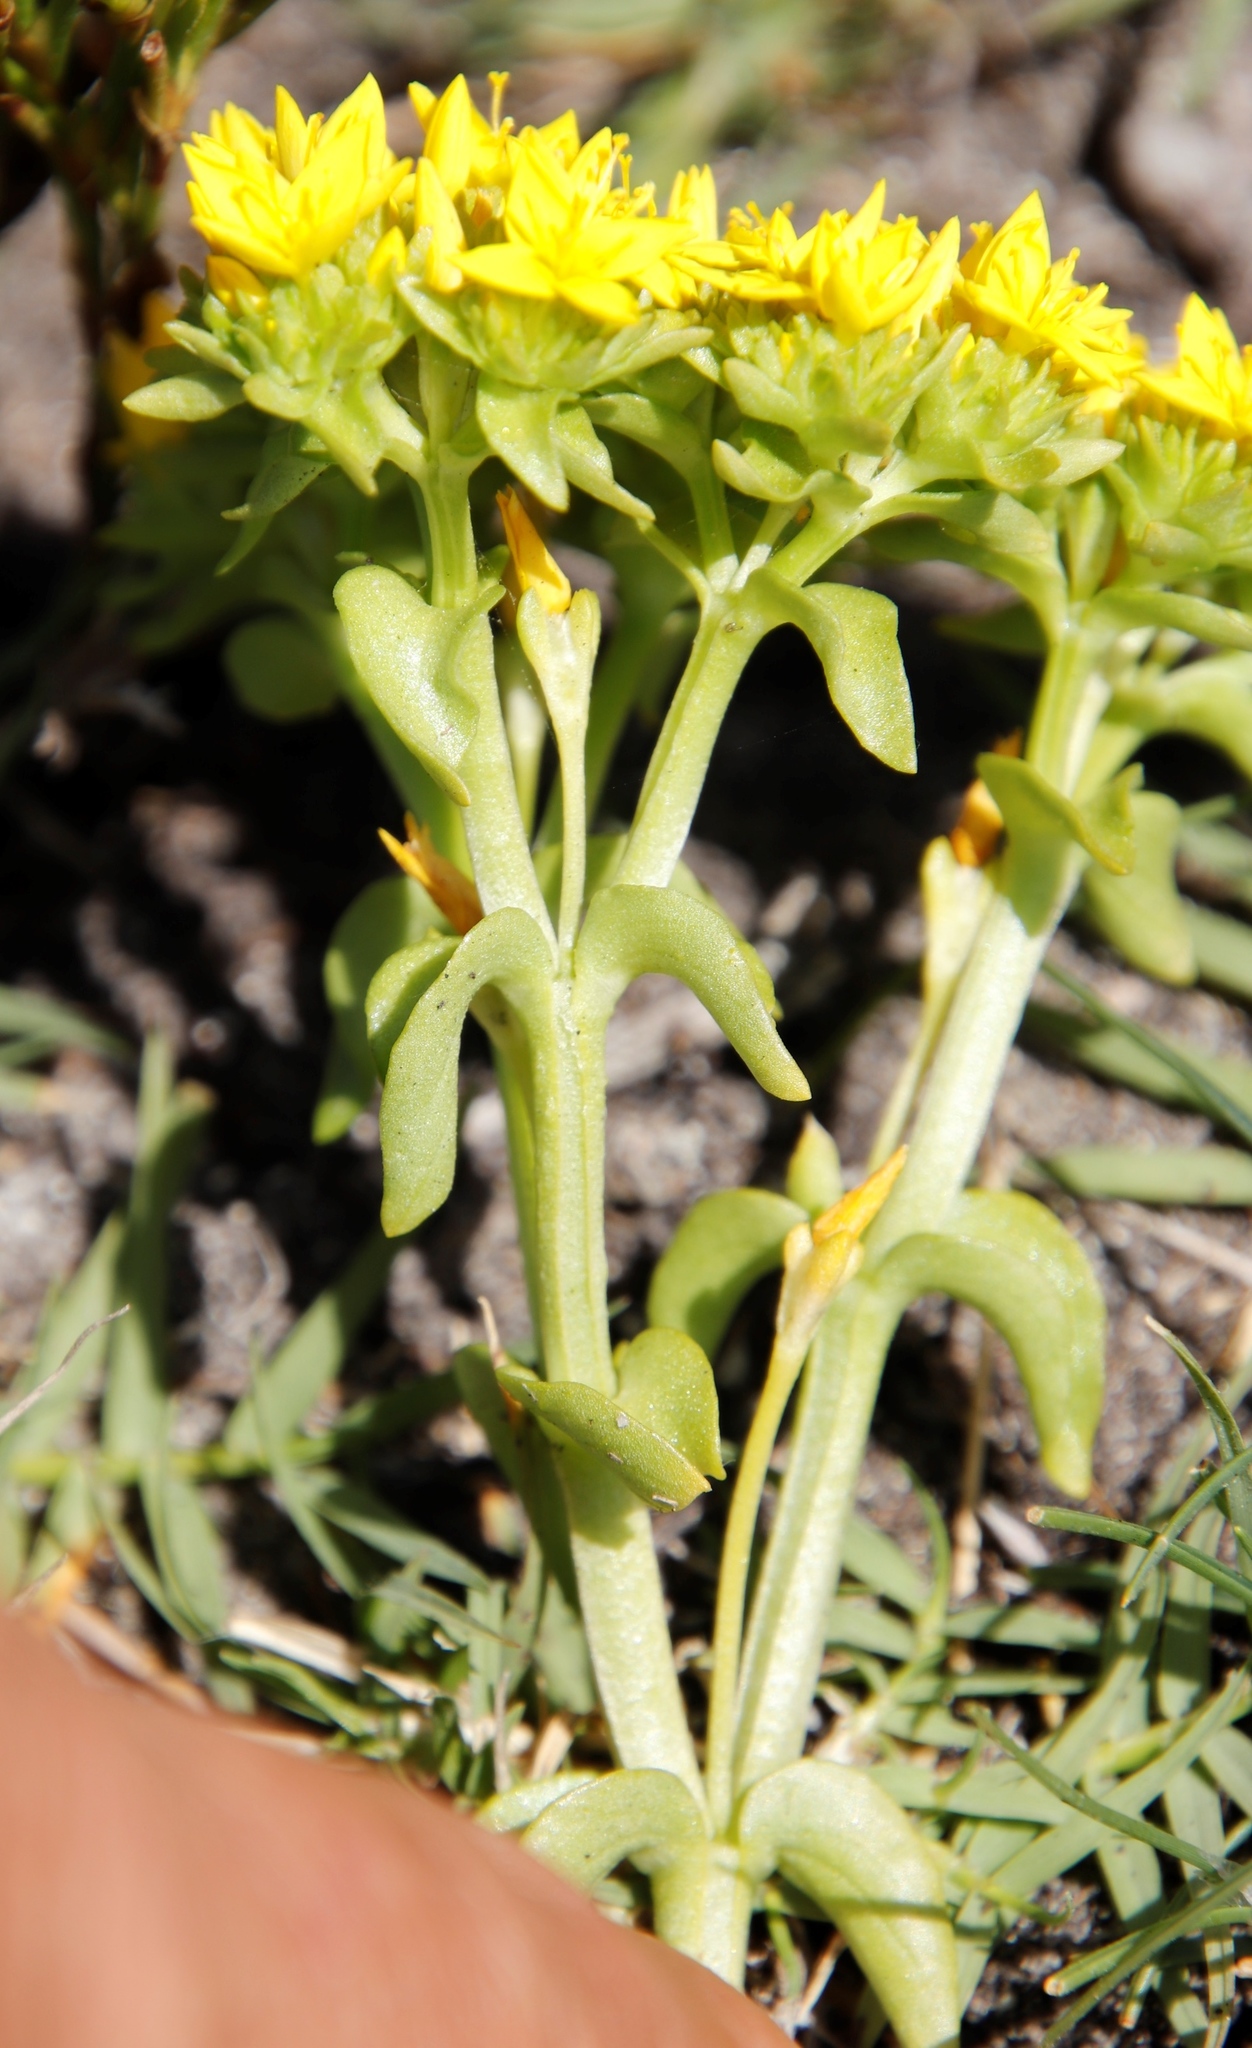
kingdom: Plantae
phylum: Tracheophyta
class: Magnoliopsida
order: Gentianales
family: Gentianaceae
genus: Sebaea
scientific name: Sebaea ambigua
